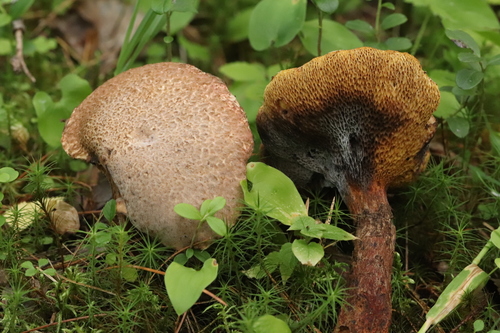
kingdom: Fungi
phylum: Basidiomycota
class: Agaricomycetes
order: Boletales
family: Suillaceae
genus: Suillus
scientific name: Suillus spraguei
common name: Painted suillus
